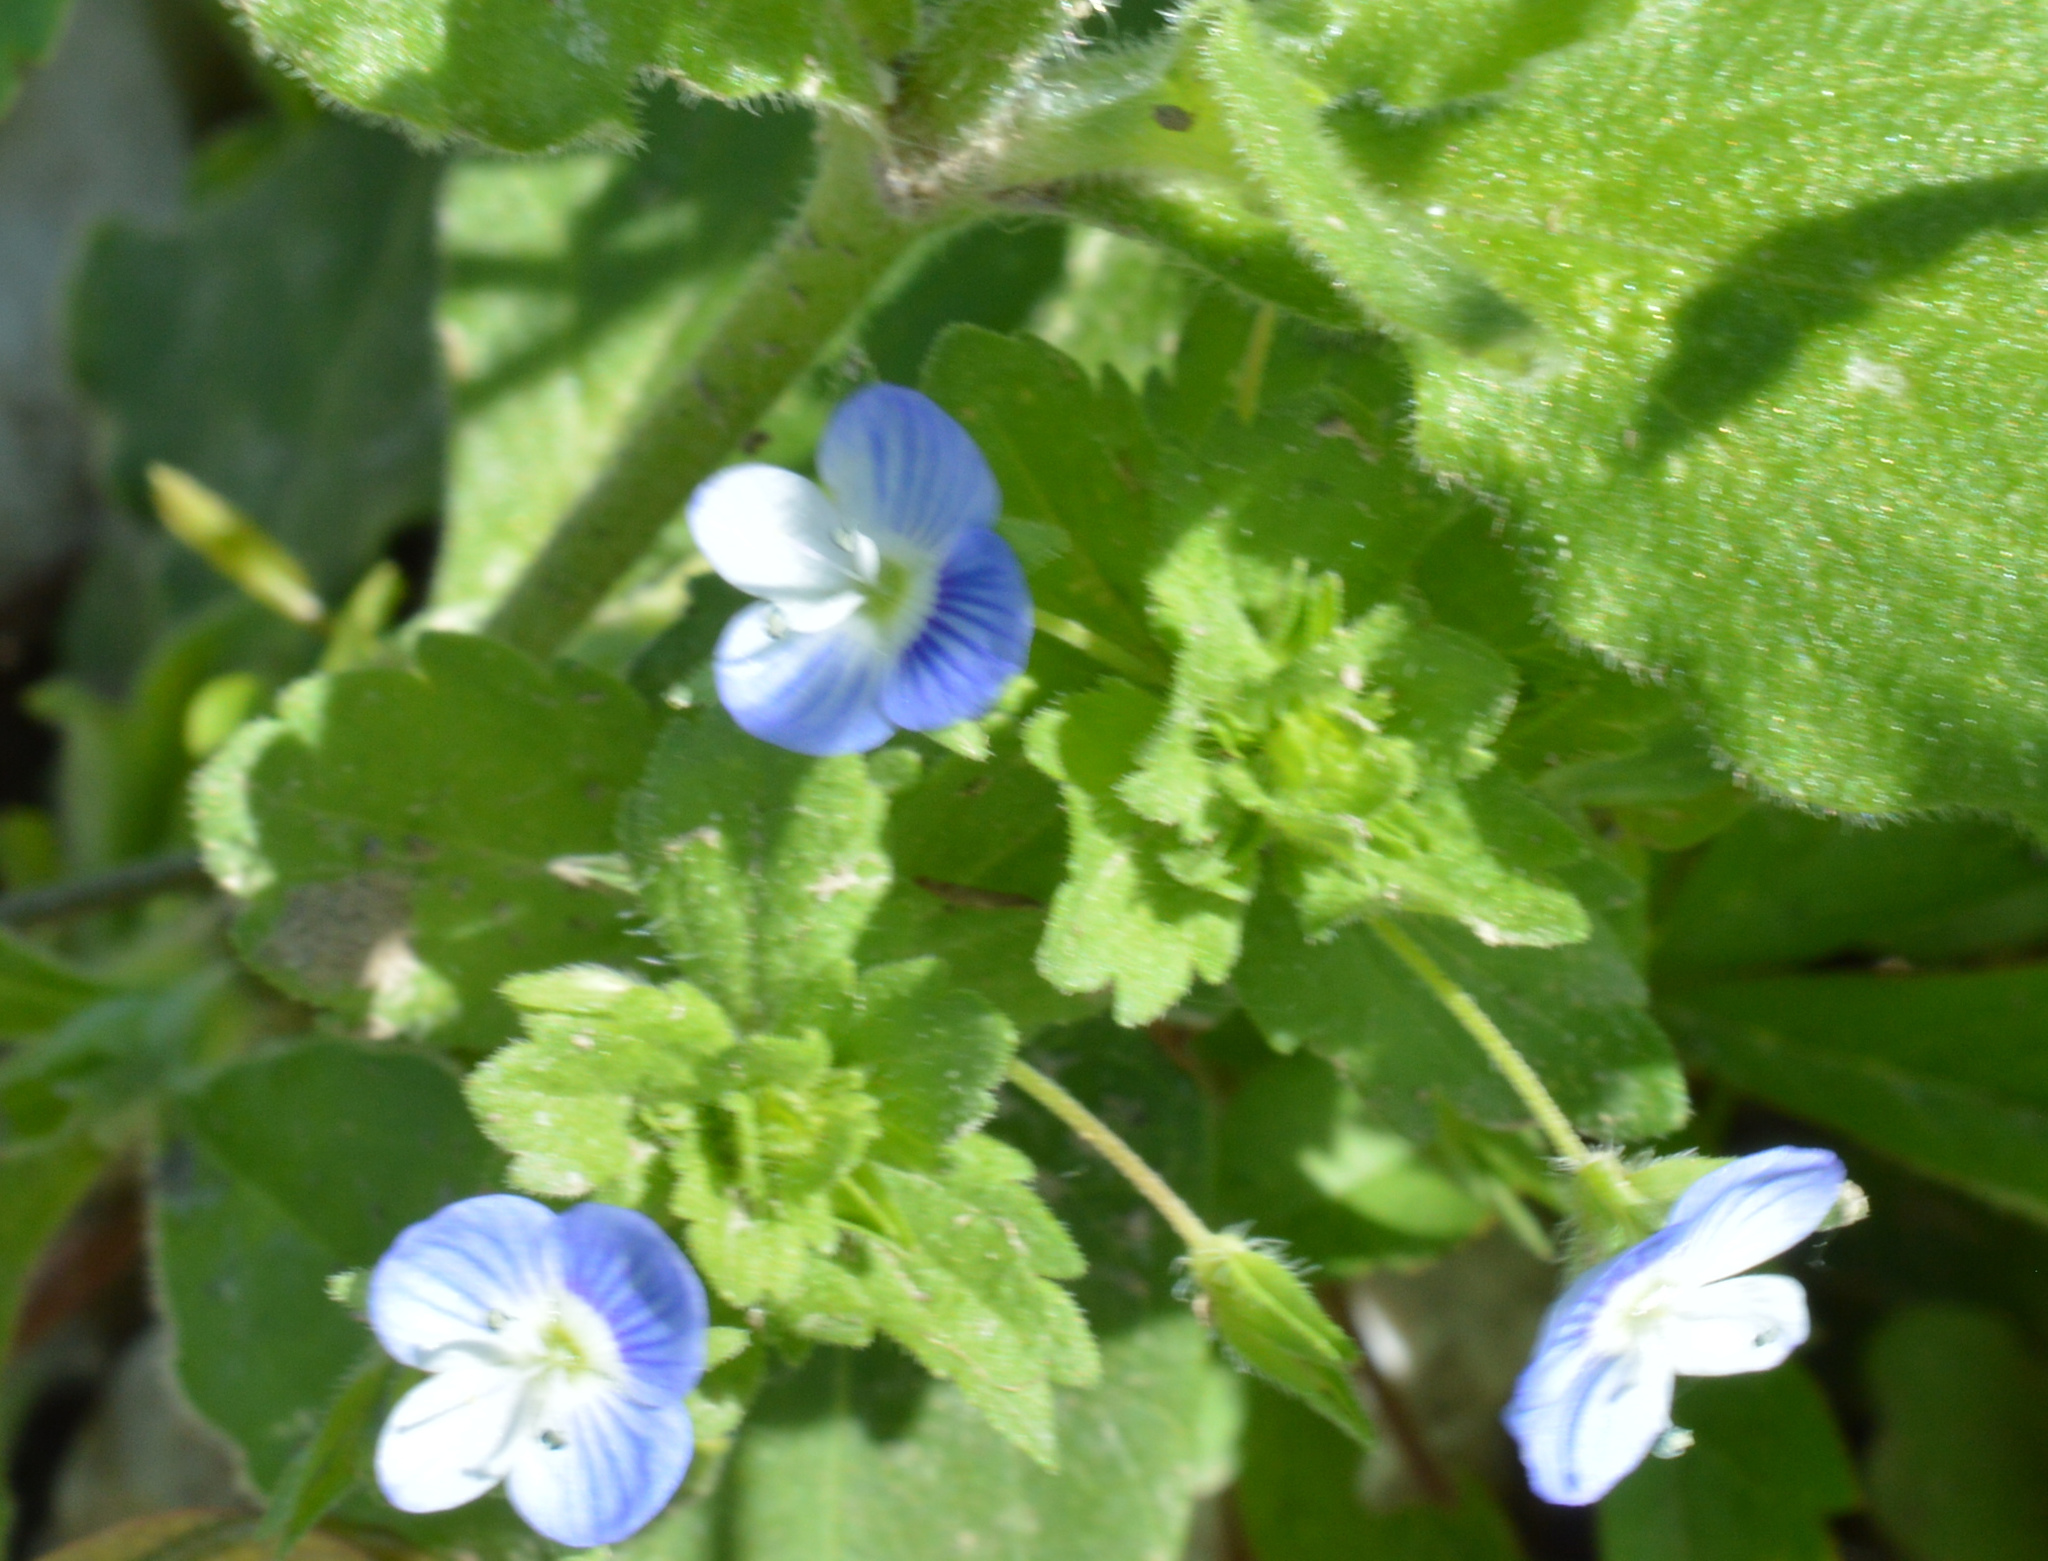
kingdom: Plantae
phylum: Tracheophyta
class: Magnoliopsida
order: Lamiales
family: Plantaginaceae
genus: Veronica
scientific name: Veronica persica
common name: Common field-speedwell
